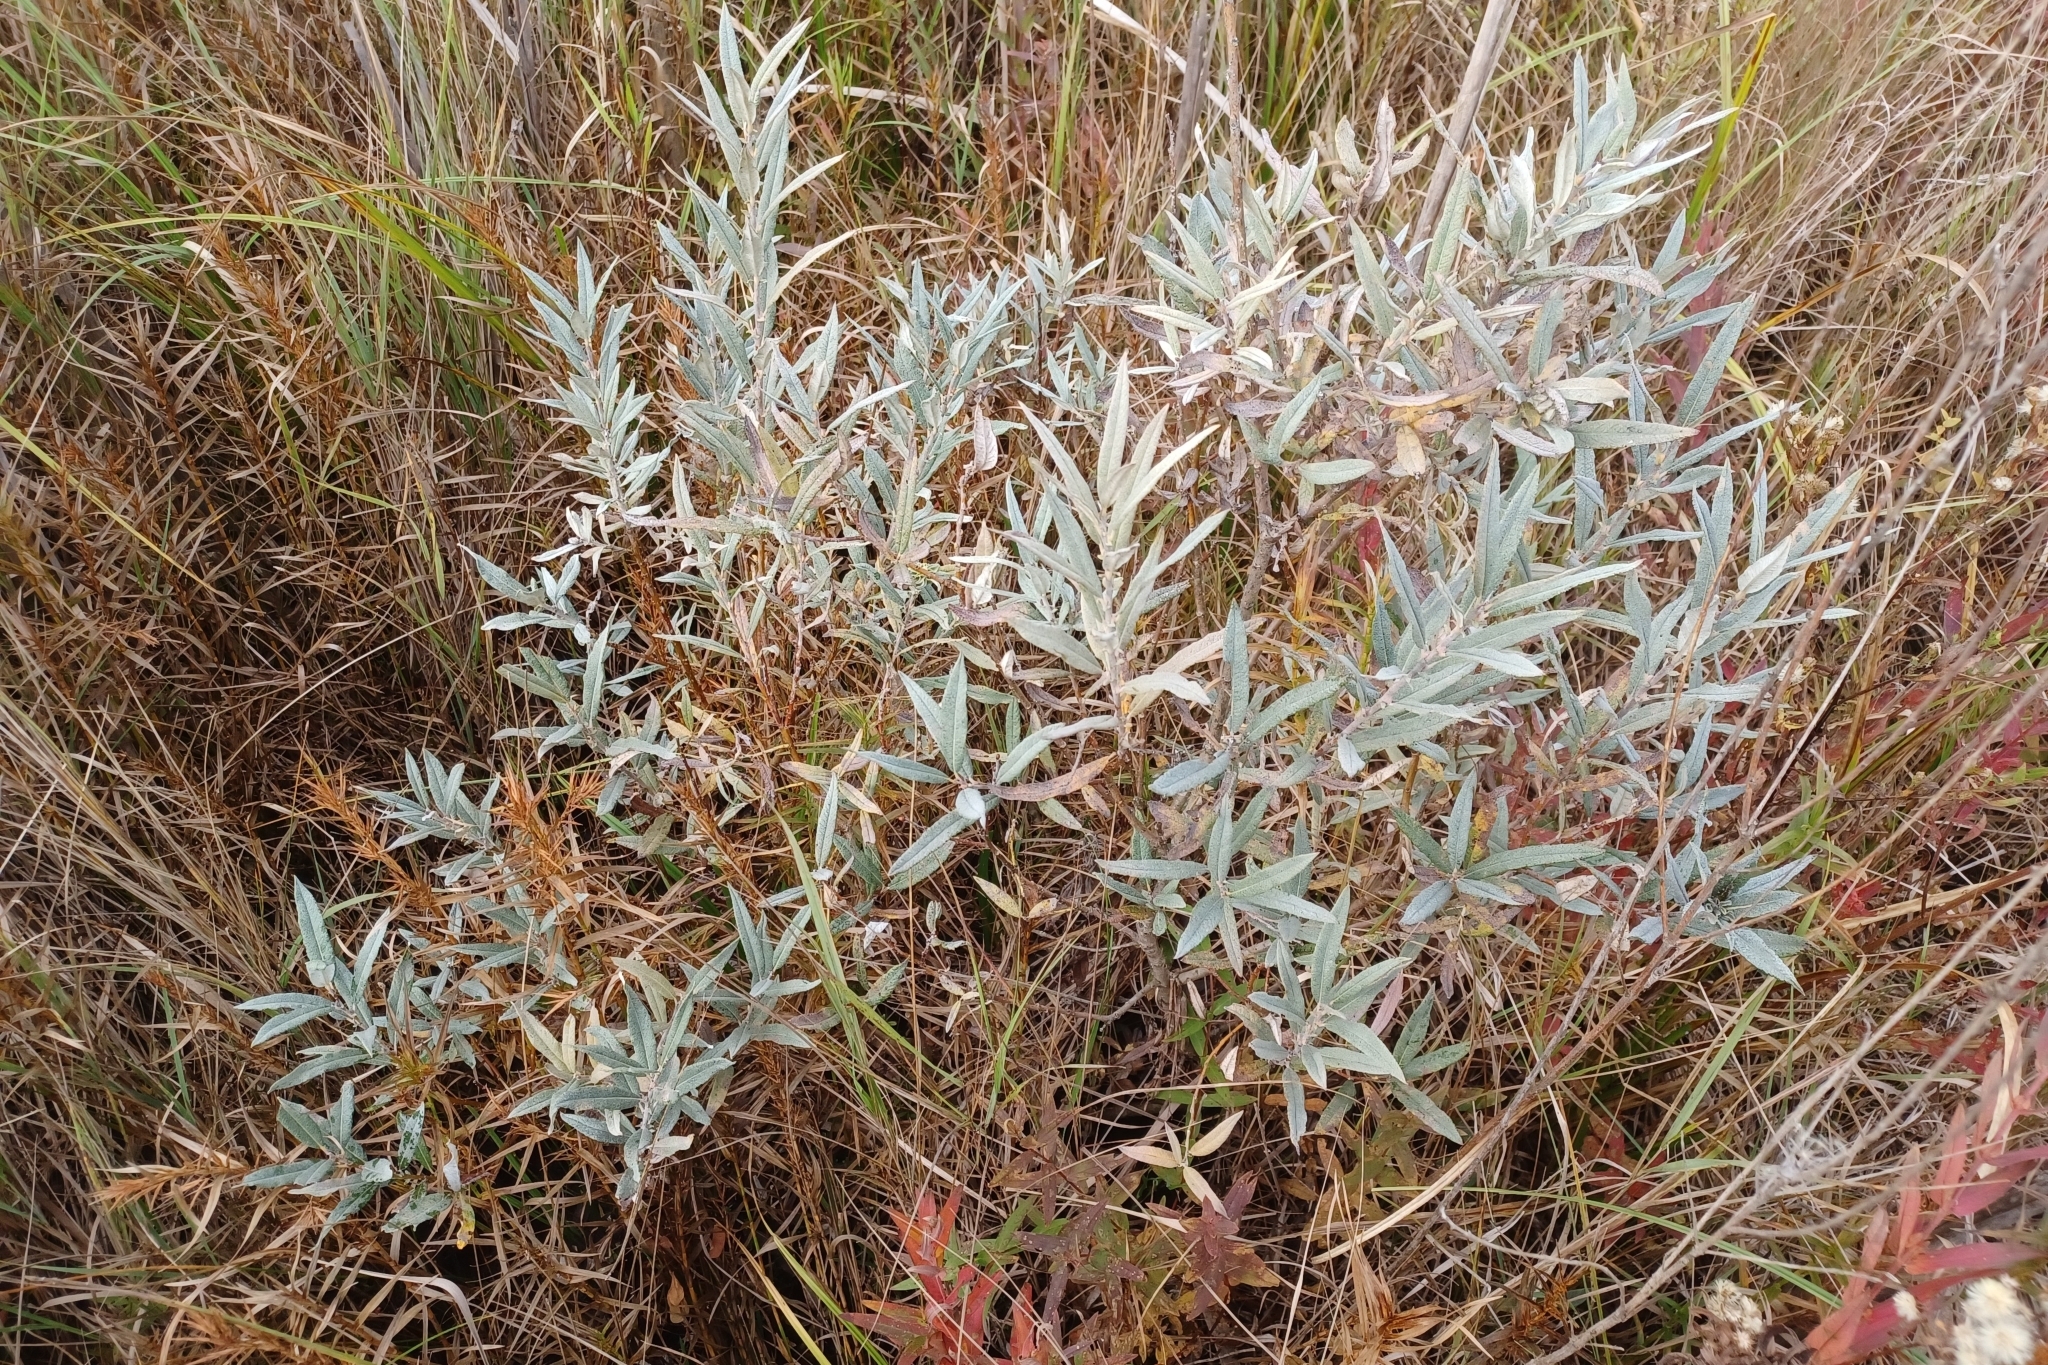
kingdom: Plantae
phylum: Tracheophyta
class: Magnoliopsida
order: Malpighiales
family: Salicaceae
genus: Salix
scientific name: Salix candida
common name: Hoary willow
